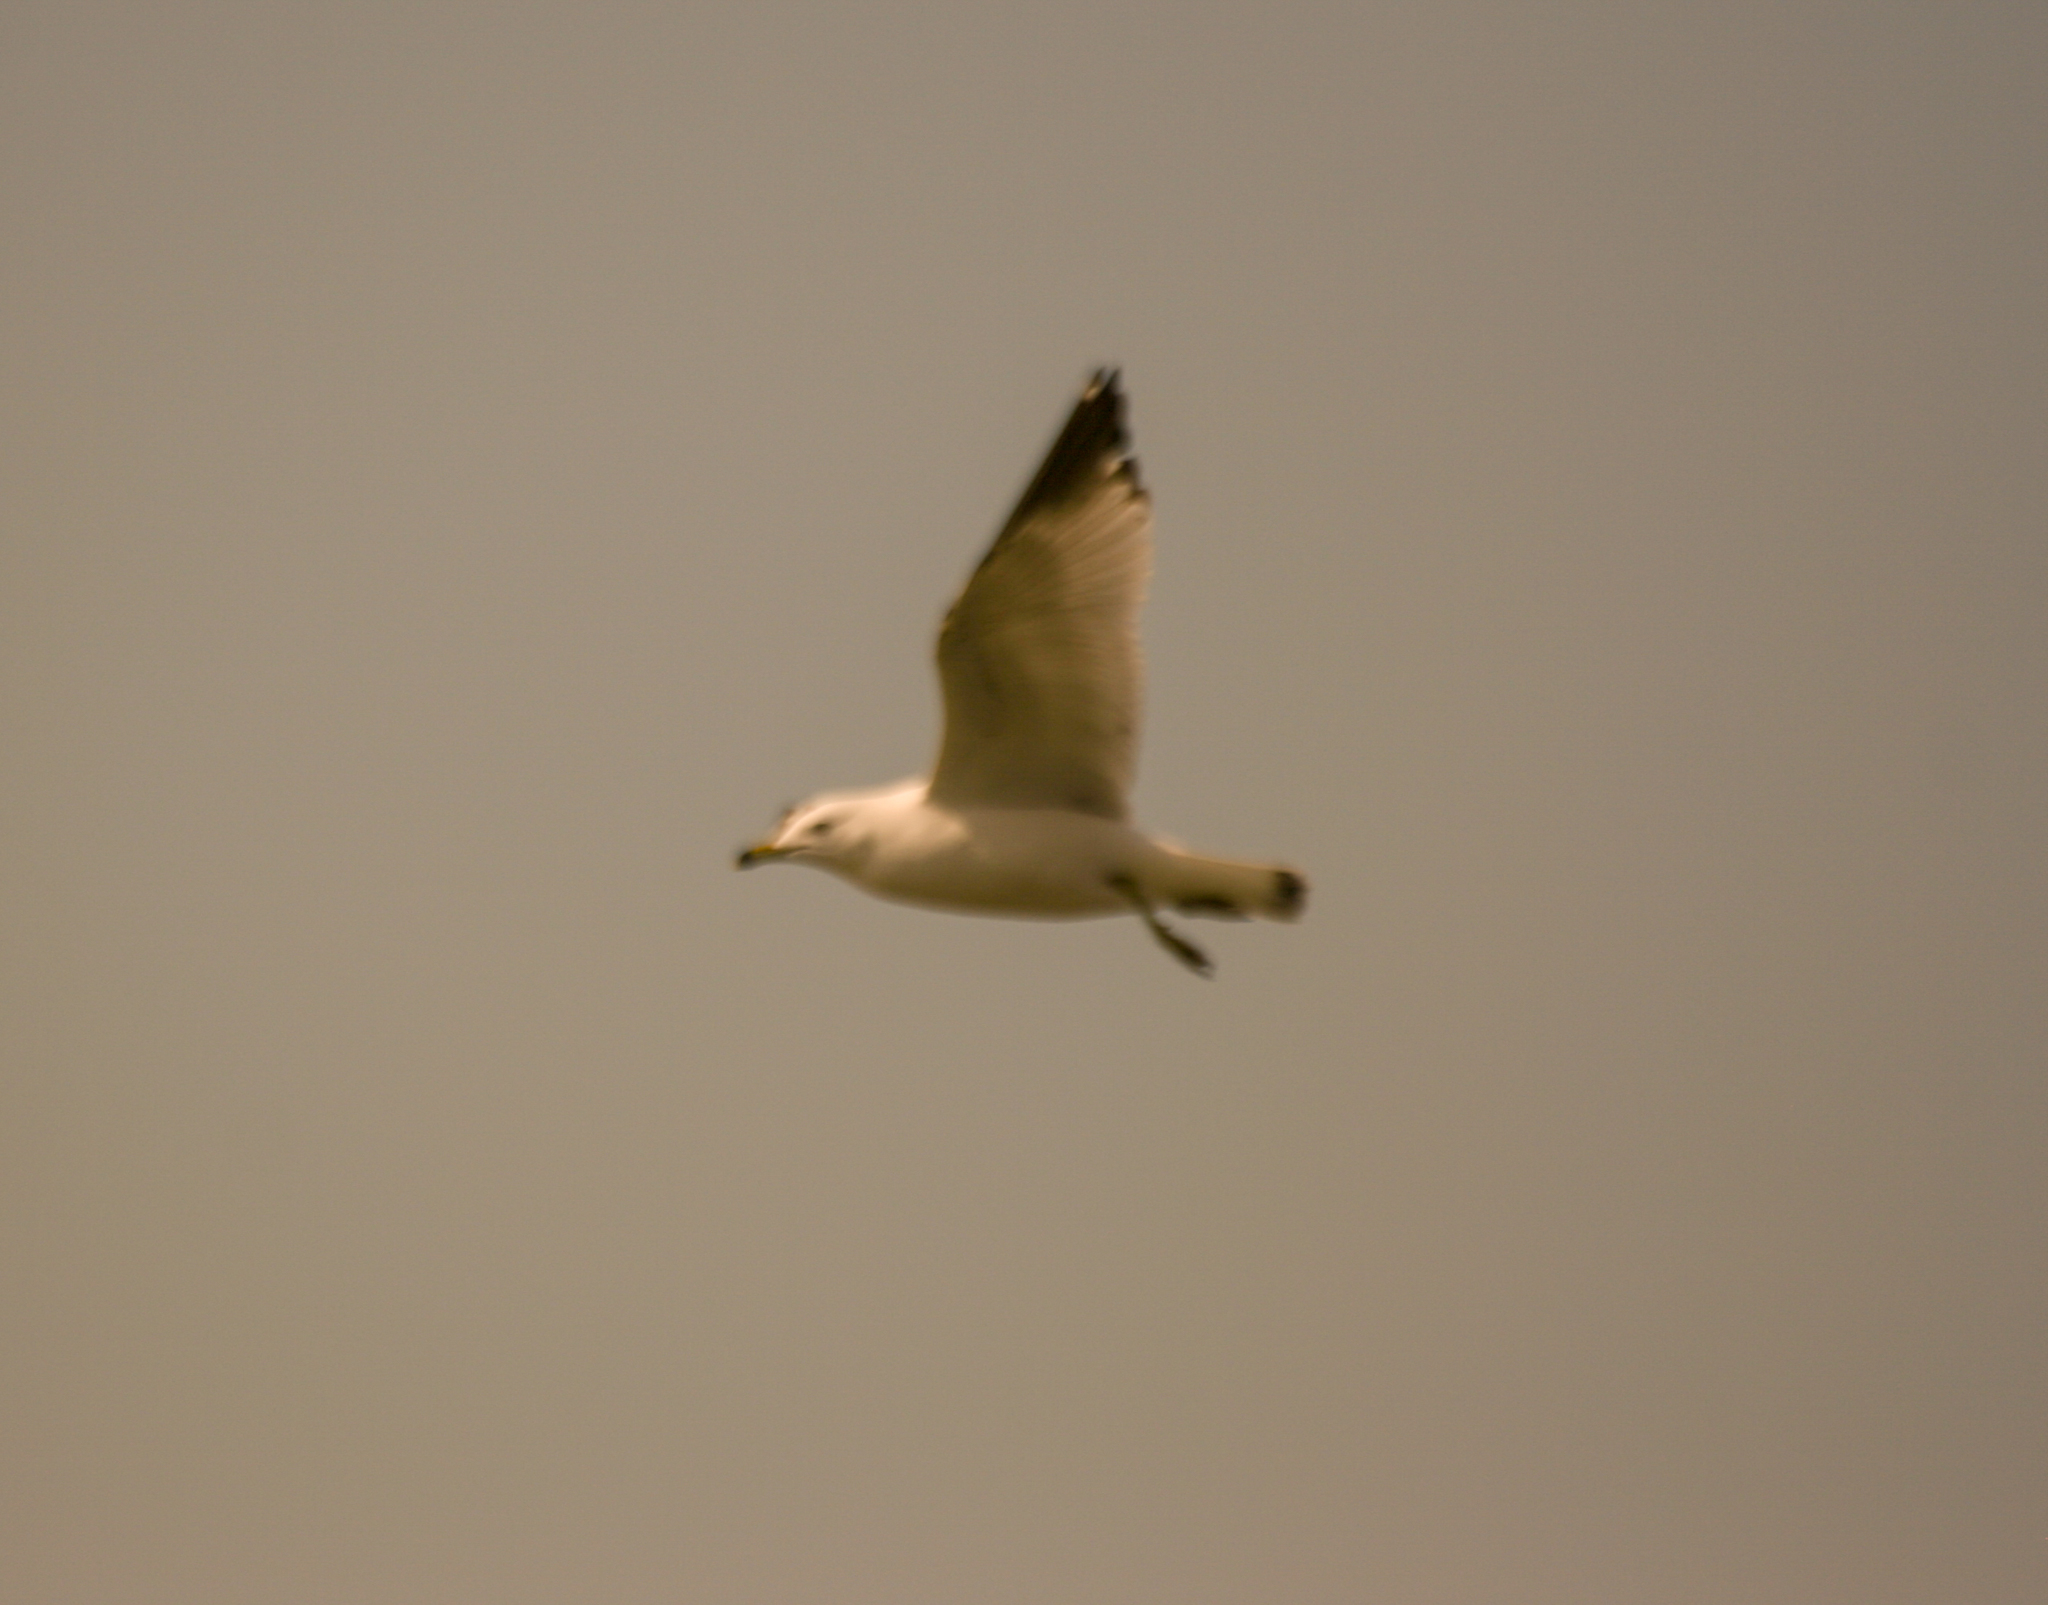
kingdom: Animalia
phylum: Chordata
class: Aves
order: Charadriiformes
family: Laridae
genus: Larus
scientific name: Larus delawarensis
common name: Ring-billed gull
